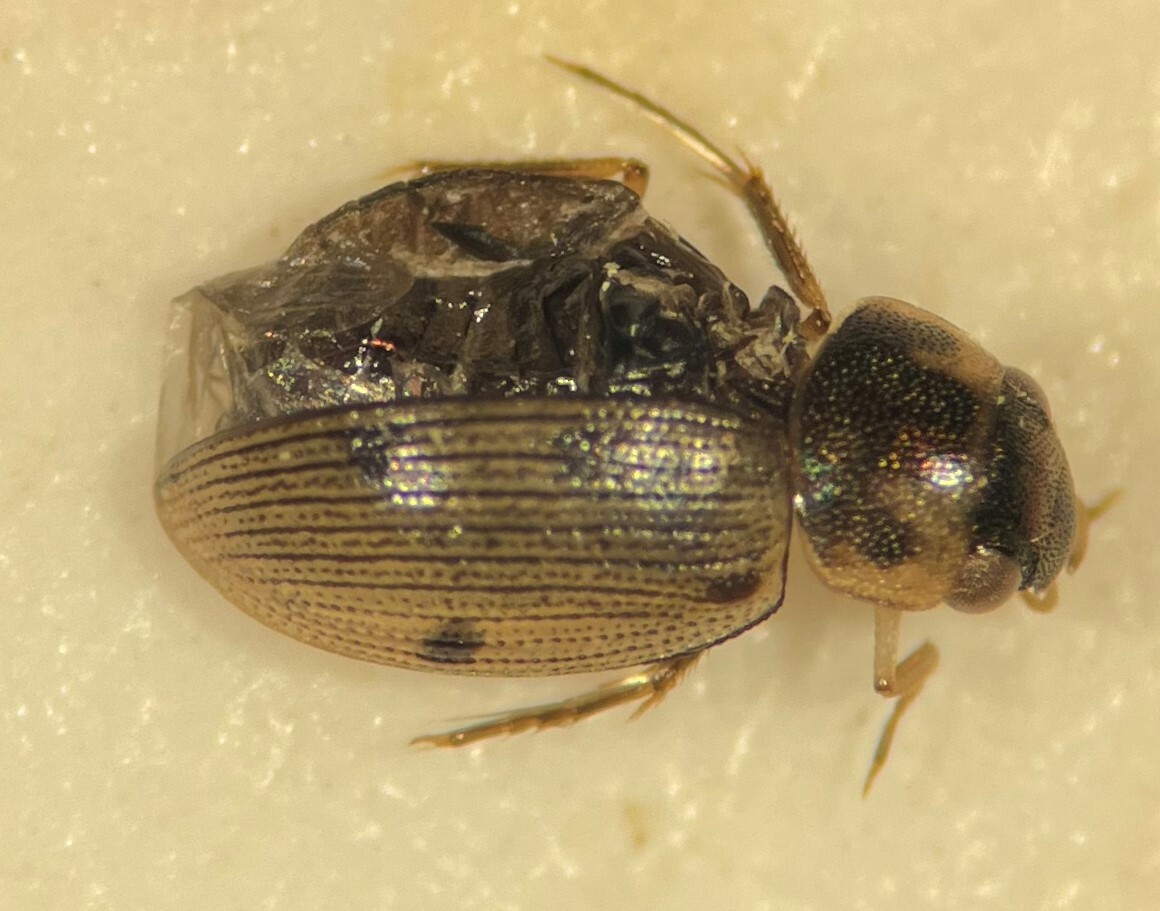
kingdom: Animalia
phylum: Arthropoda
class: Insecta
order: Coleoptera
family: Hydrophilidae
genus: Berosus
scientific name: Berosus moerens
